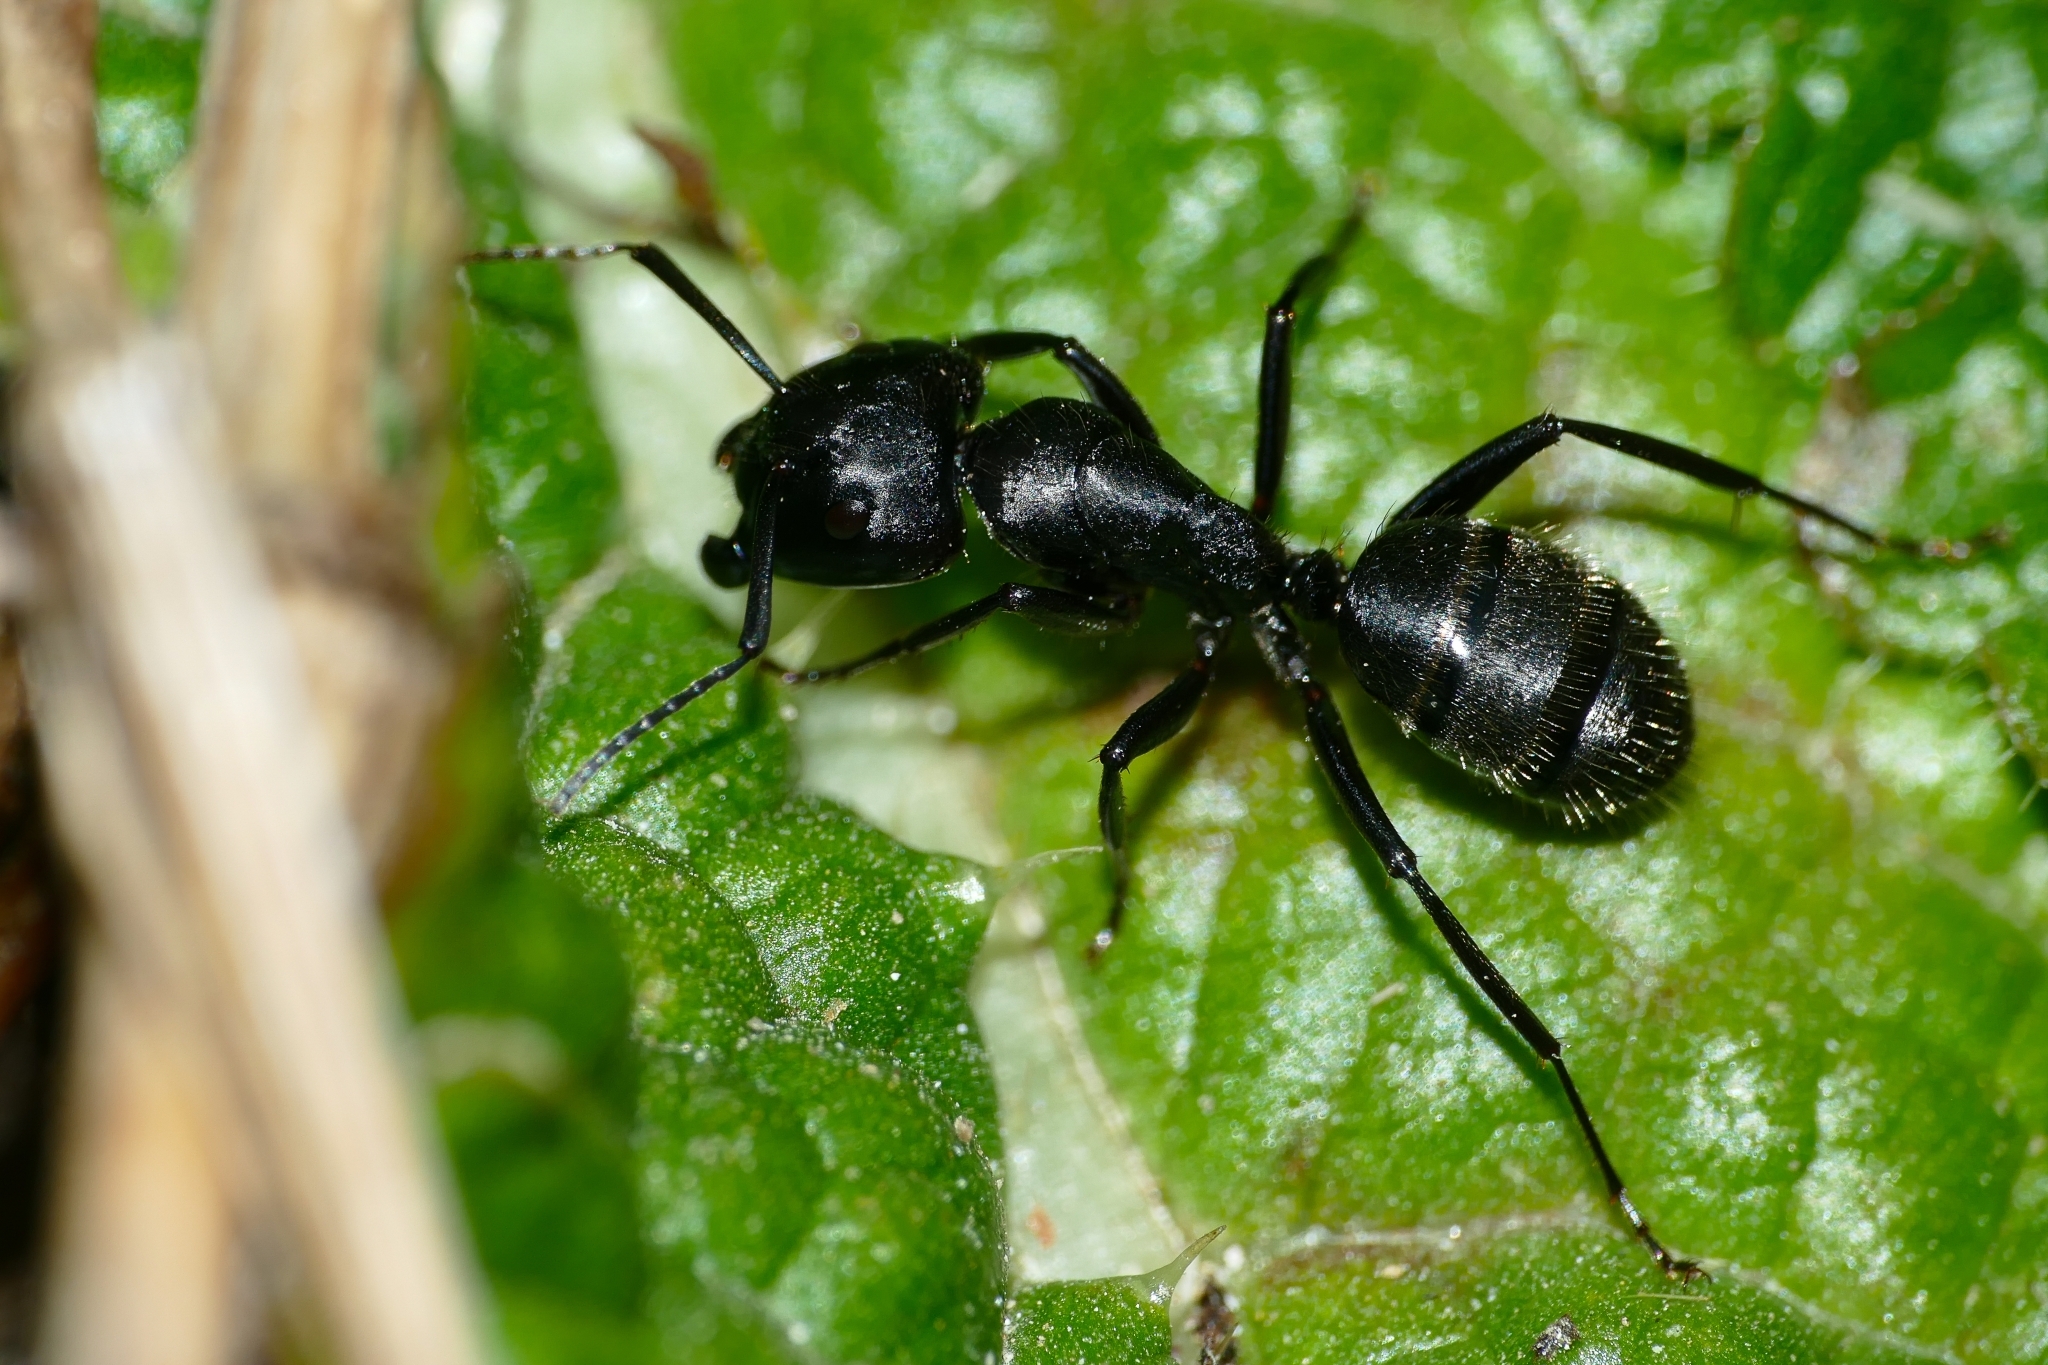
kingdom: Animalia
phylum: Arthropoda
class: Insecta
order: Hymenoptera
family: Formicidae
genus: Camponotus
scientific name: Camponotus vagus
